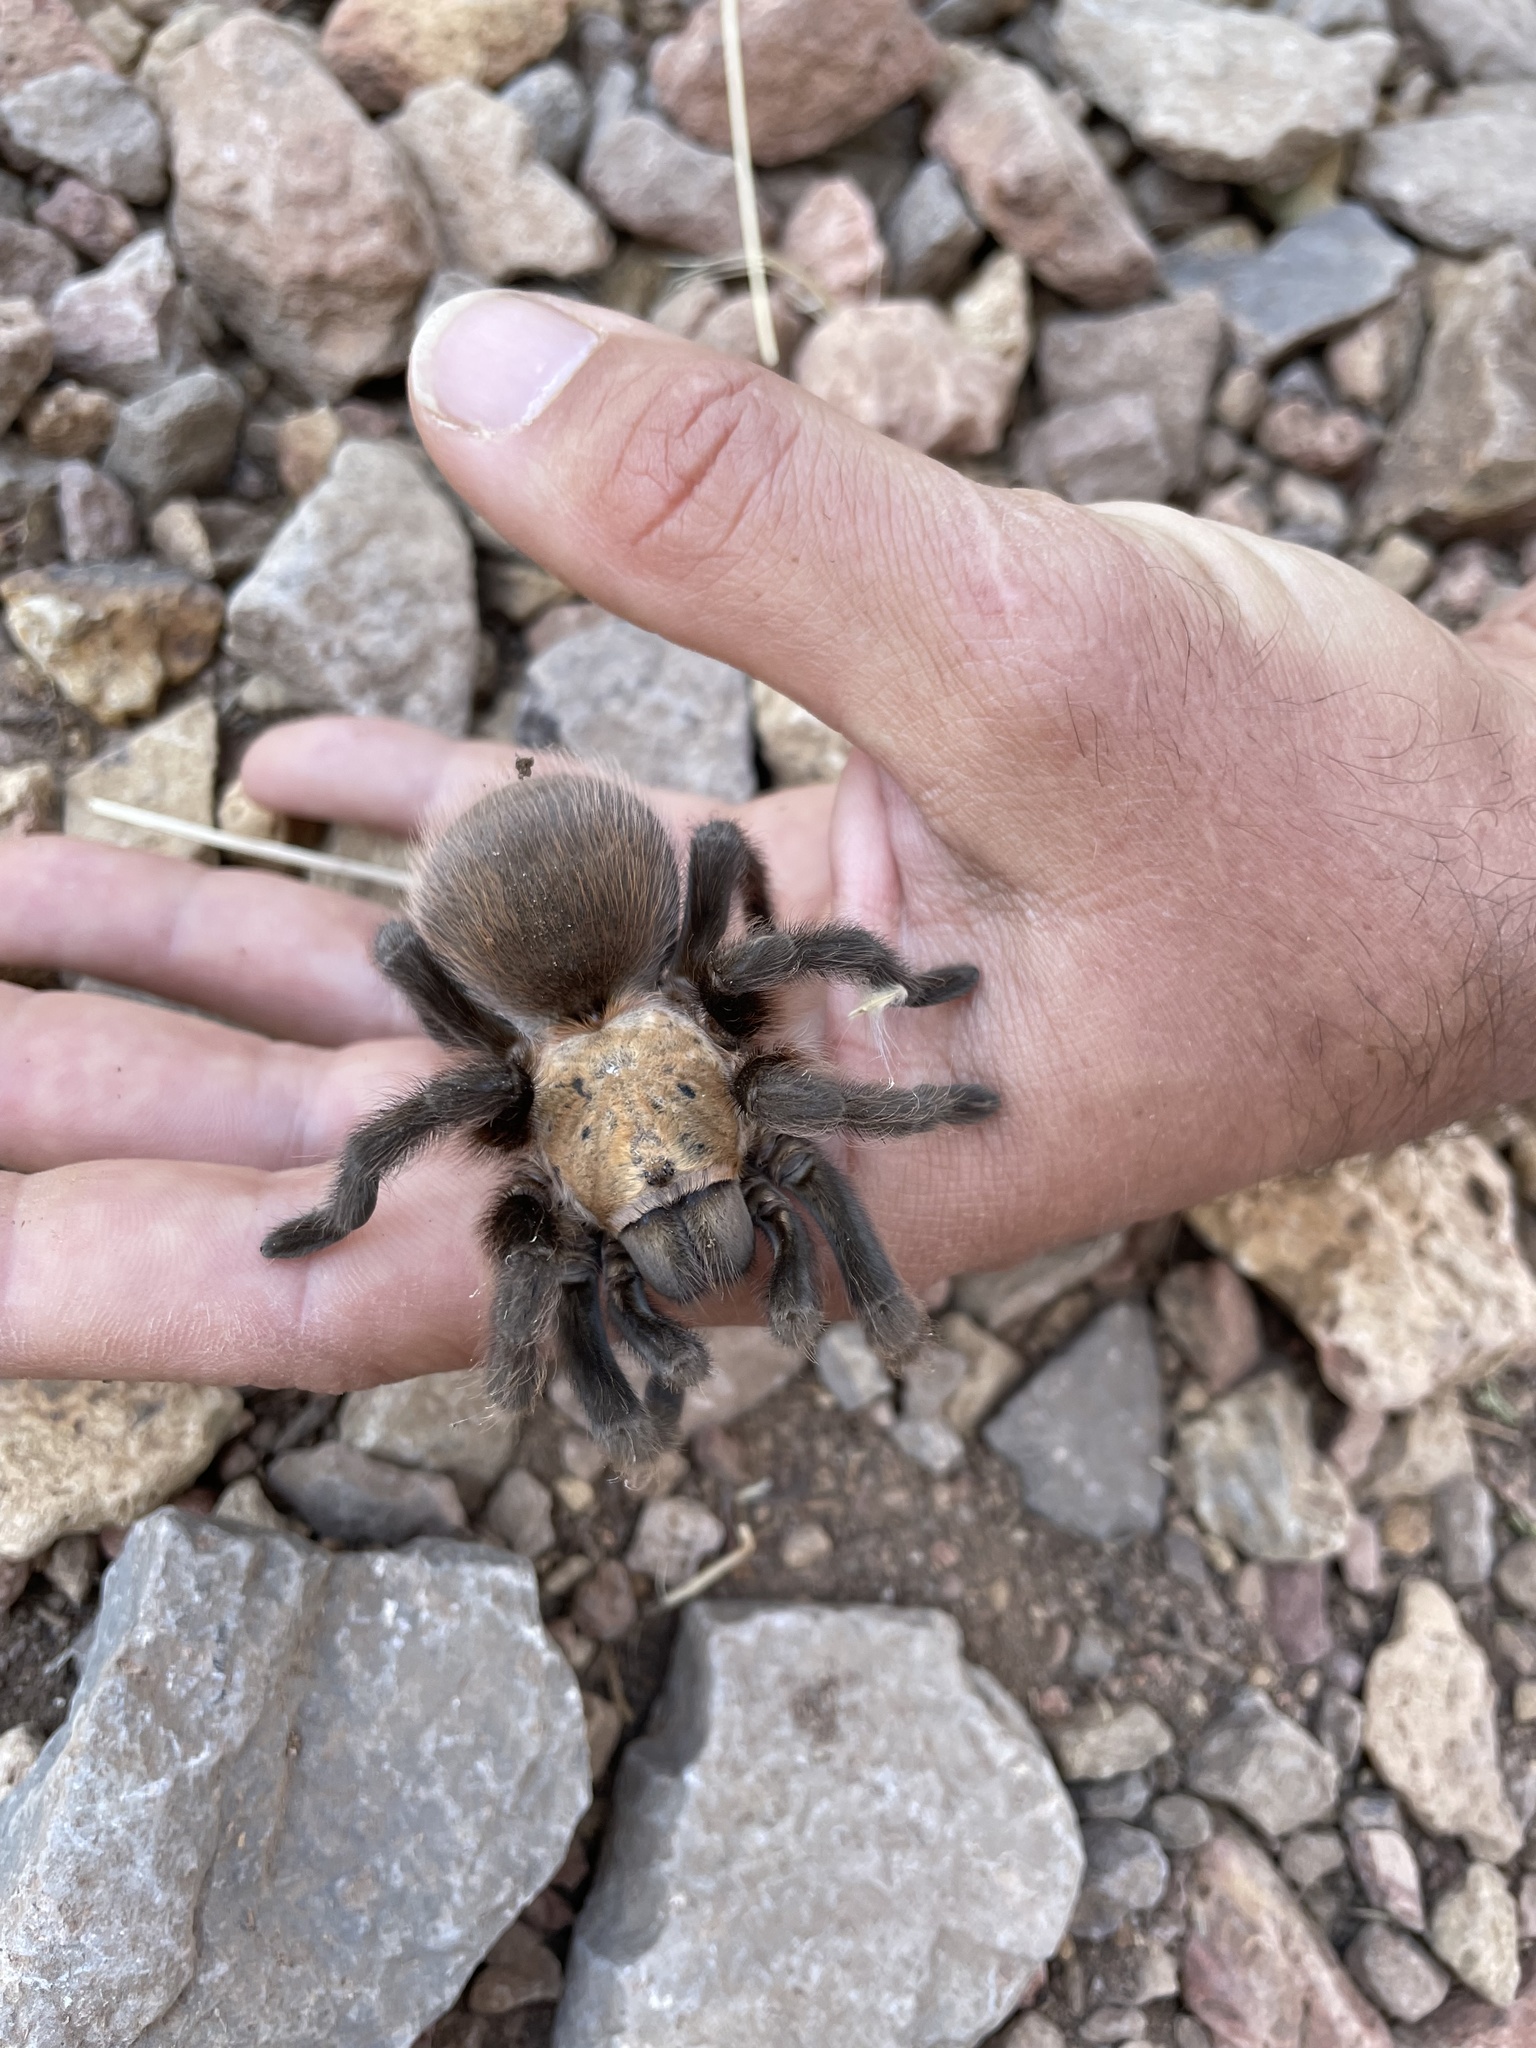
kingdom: Animalia
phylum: Arthropoda
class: Arachnida
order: Araneae
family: Theraphosidae
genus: Aphonopelma
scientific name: Aphonopelma hentzi
